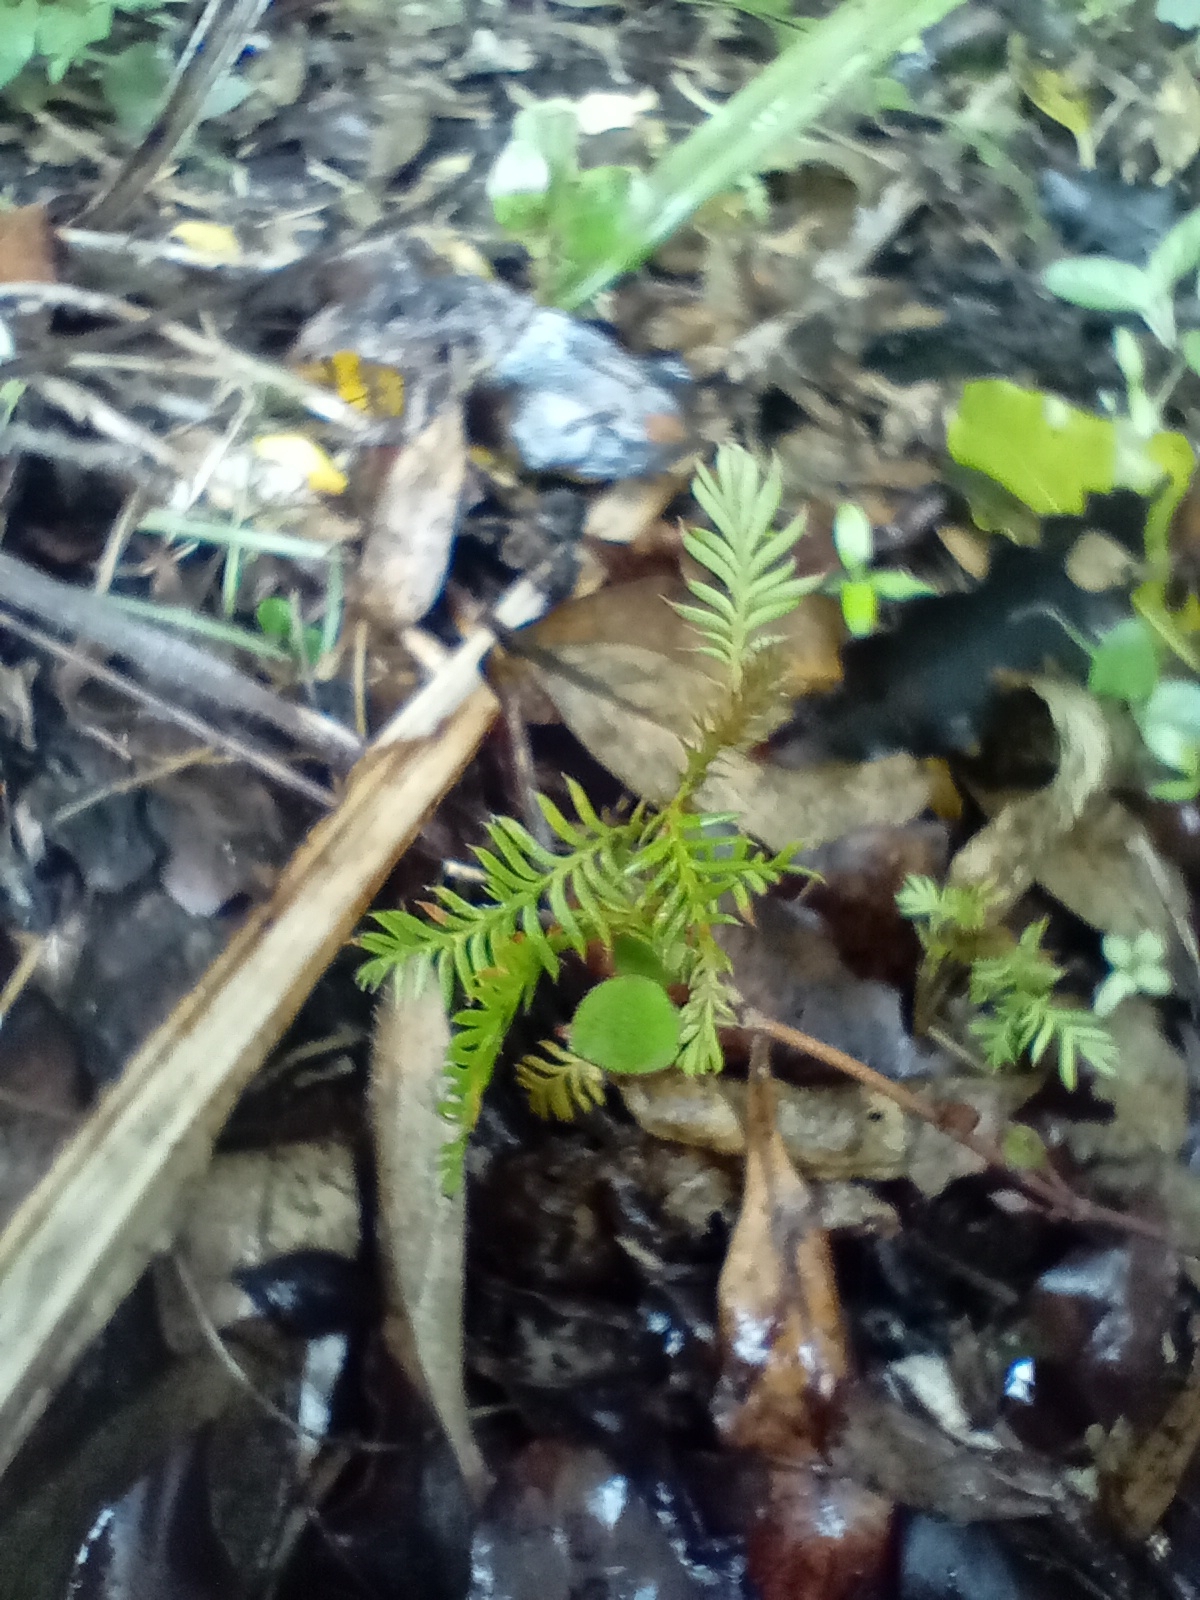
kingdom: Plantae
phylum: Tracheophyta
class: Pinopsida
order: Pinales
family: Podocarpaceae
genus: Dacrycarpus
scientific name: Dacrycarpus dacrydioides
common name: White pine
